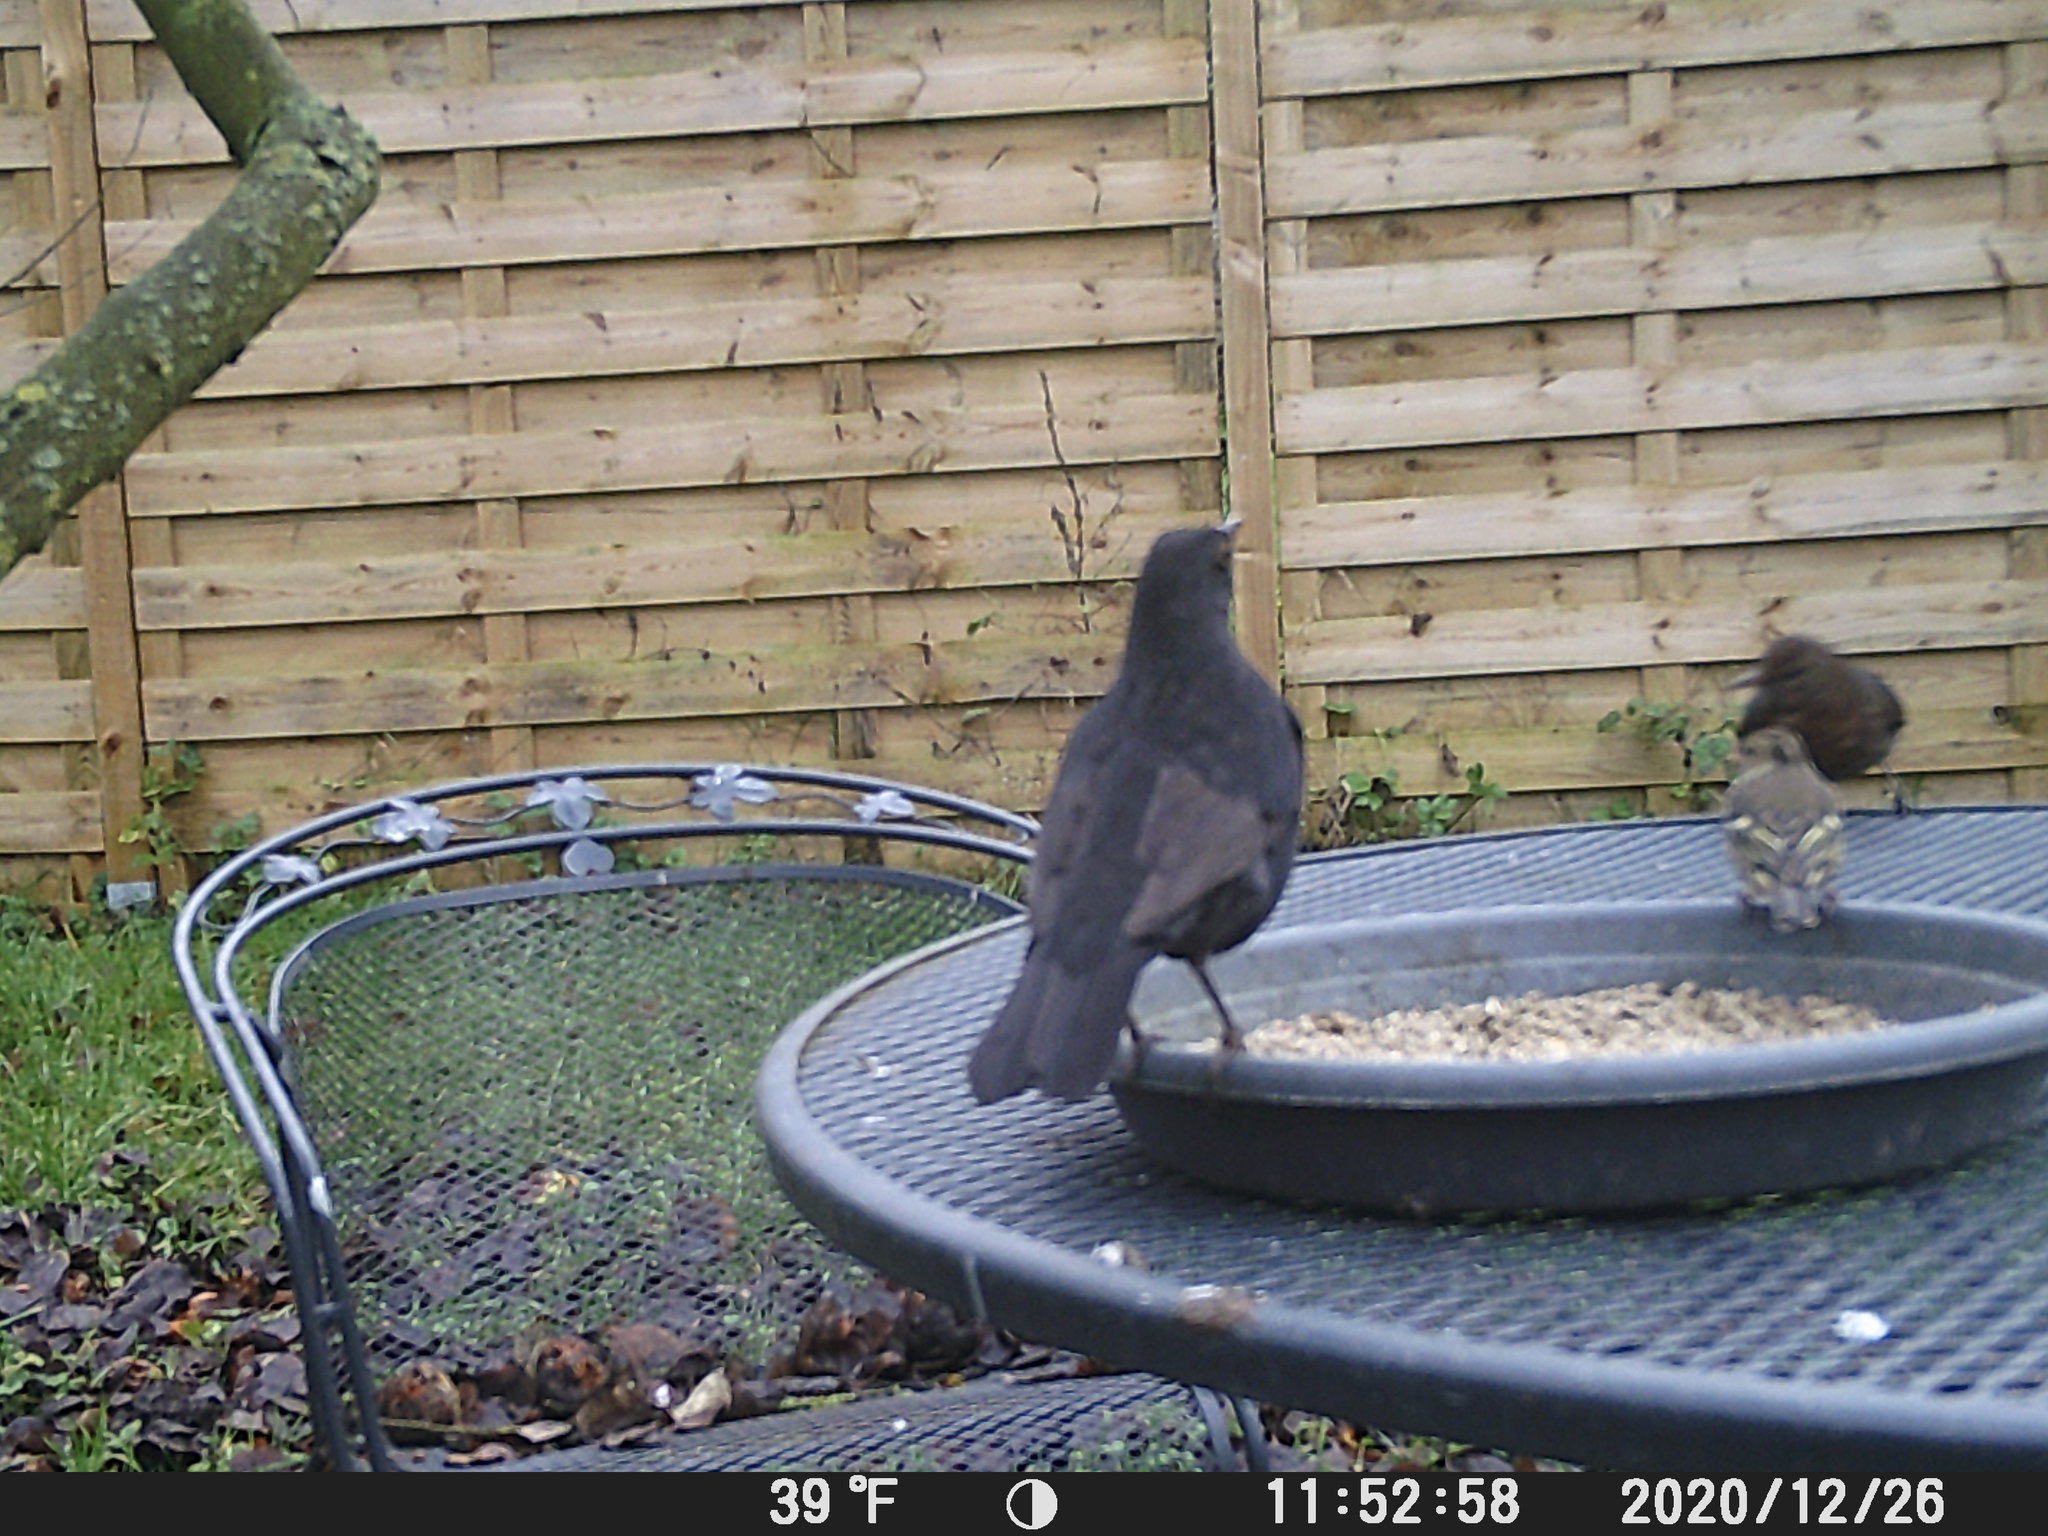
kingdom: Animalia
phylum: Chordata
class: Aves
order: Passeriformes
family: Turdidae
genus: Turdus
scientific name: Turdus merula
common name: Common blackbird
